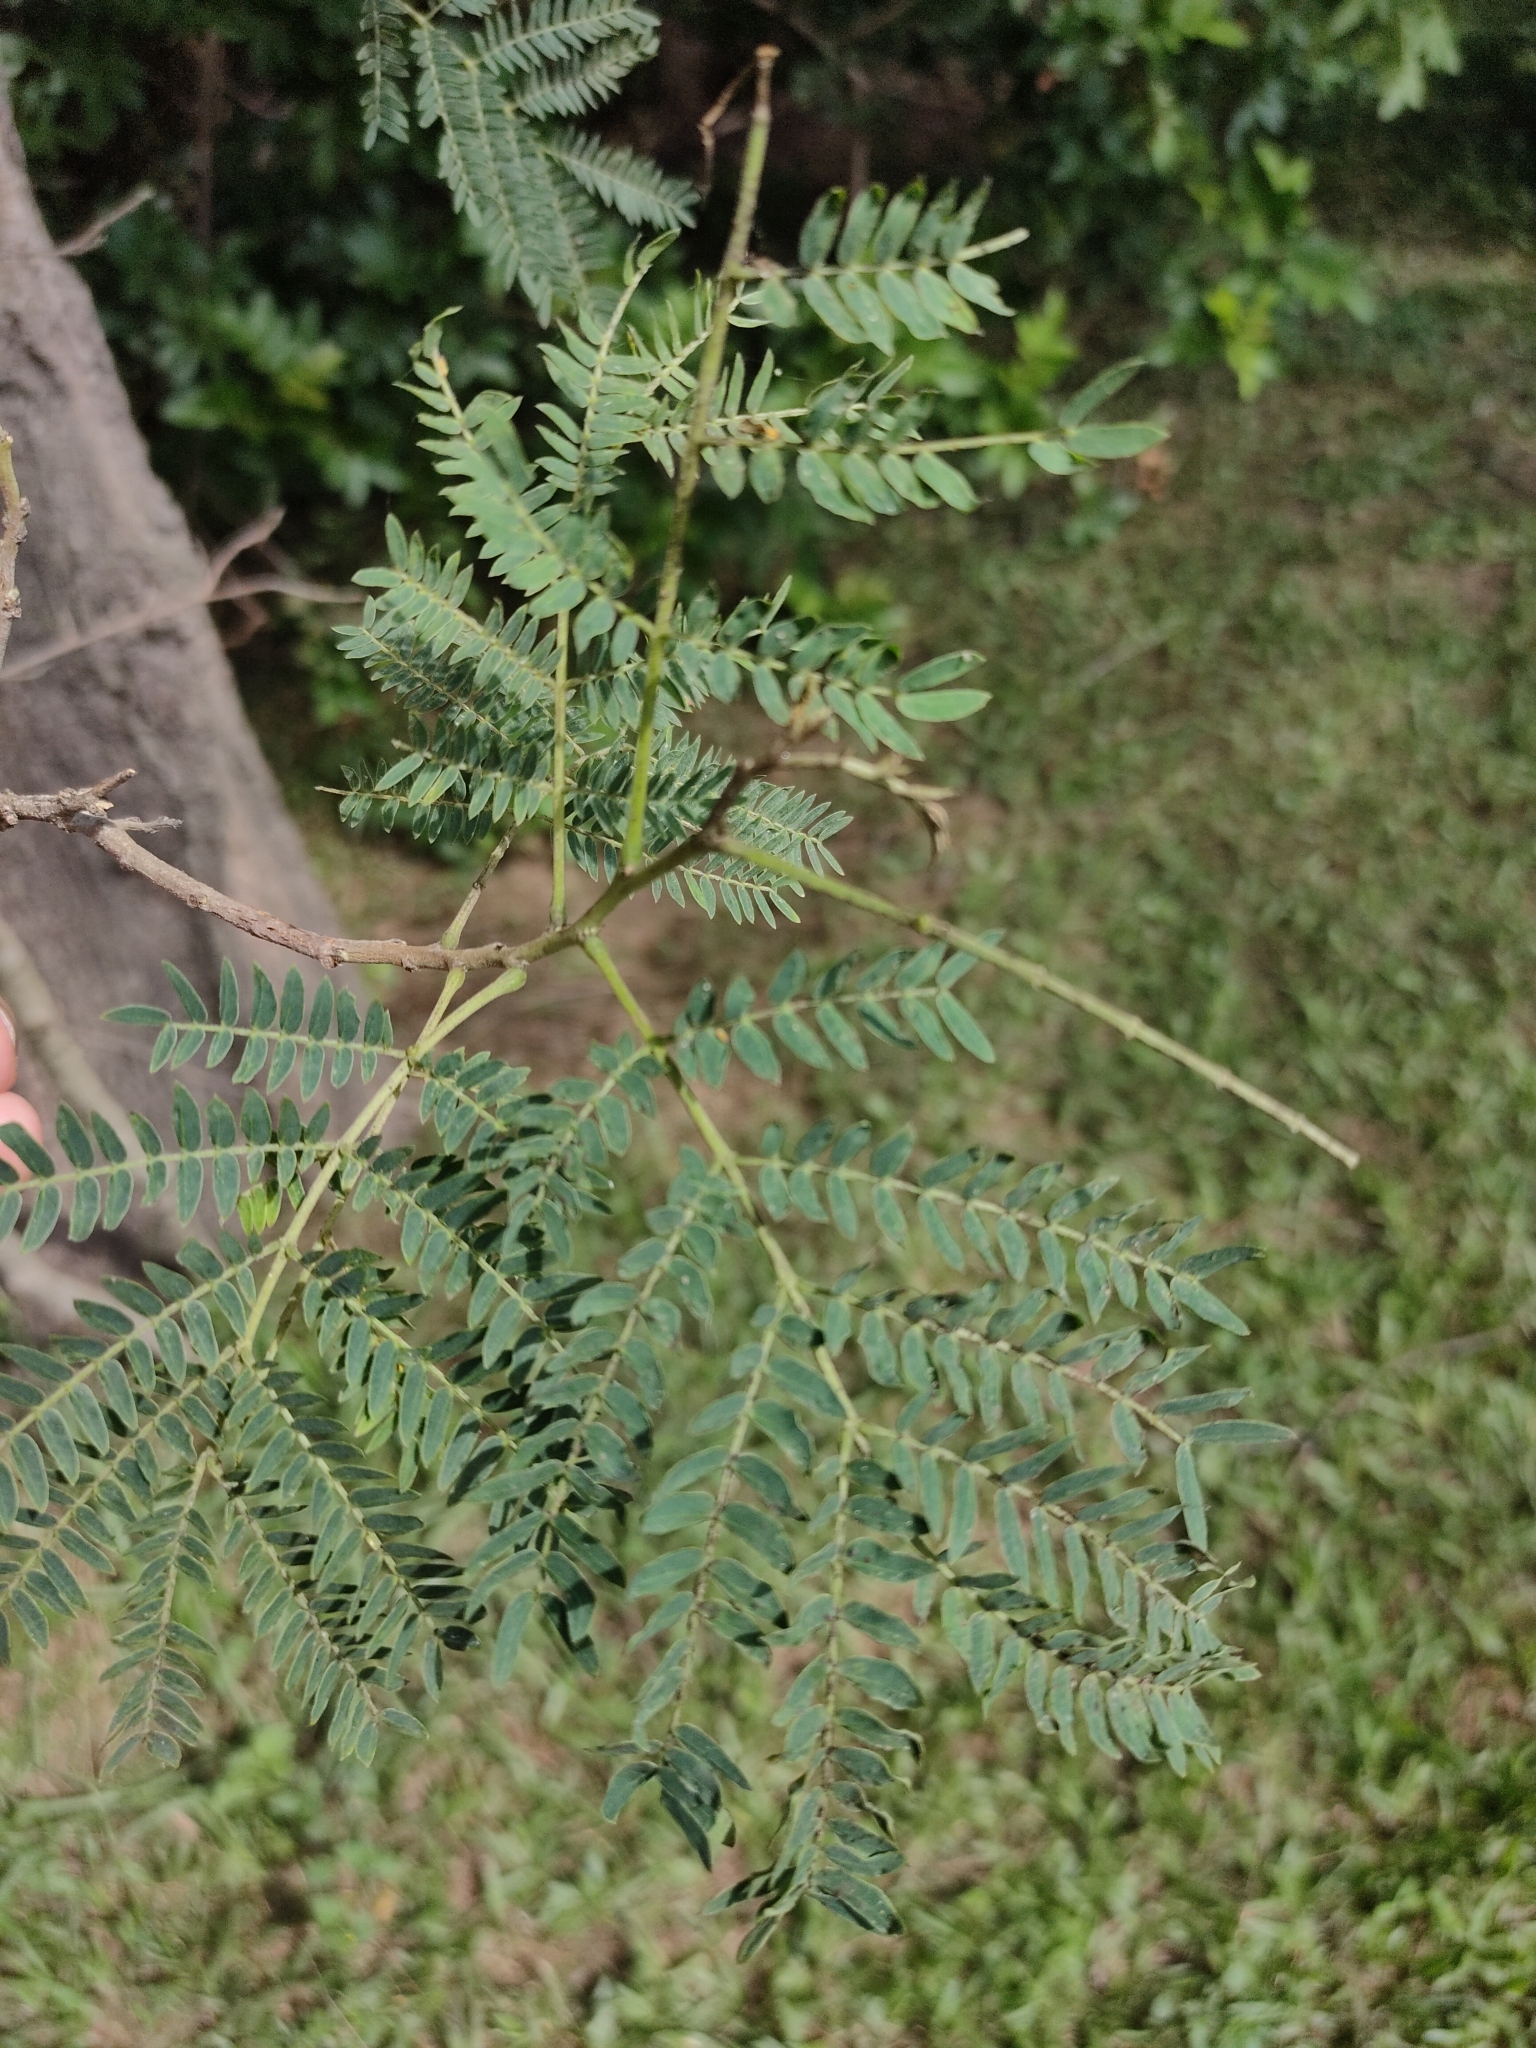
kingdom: Plantae
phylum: Tracheophyta
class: Magnoliopsida
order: Fabales
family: Fabaceae
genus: Leucaena
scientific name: Leucaena leucocephala
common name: White leadtree
